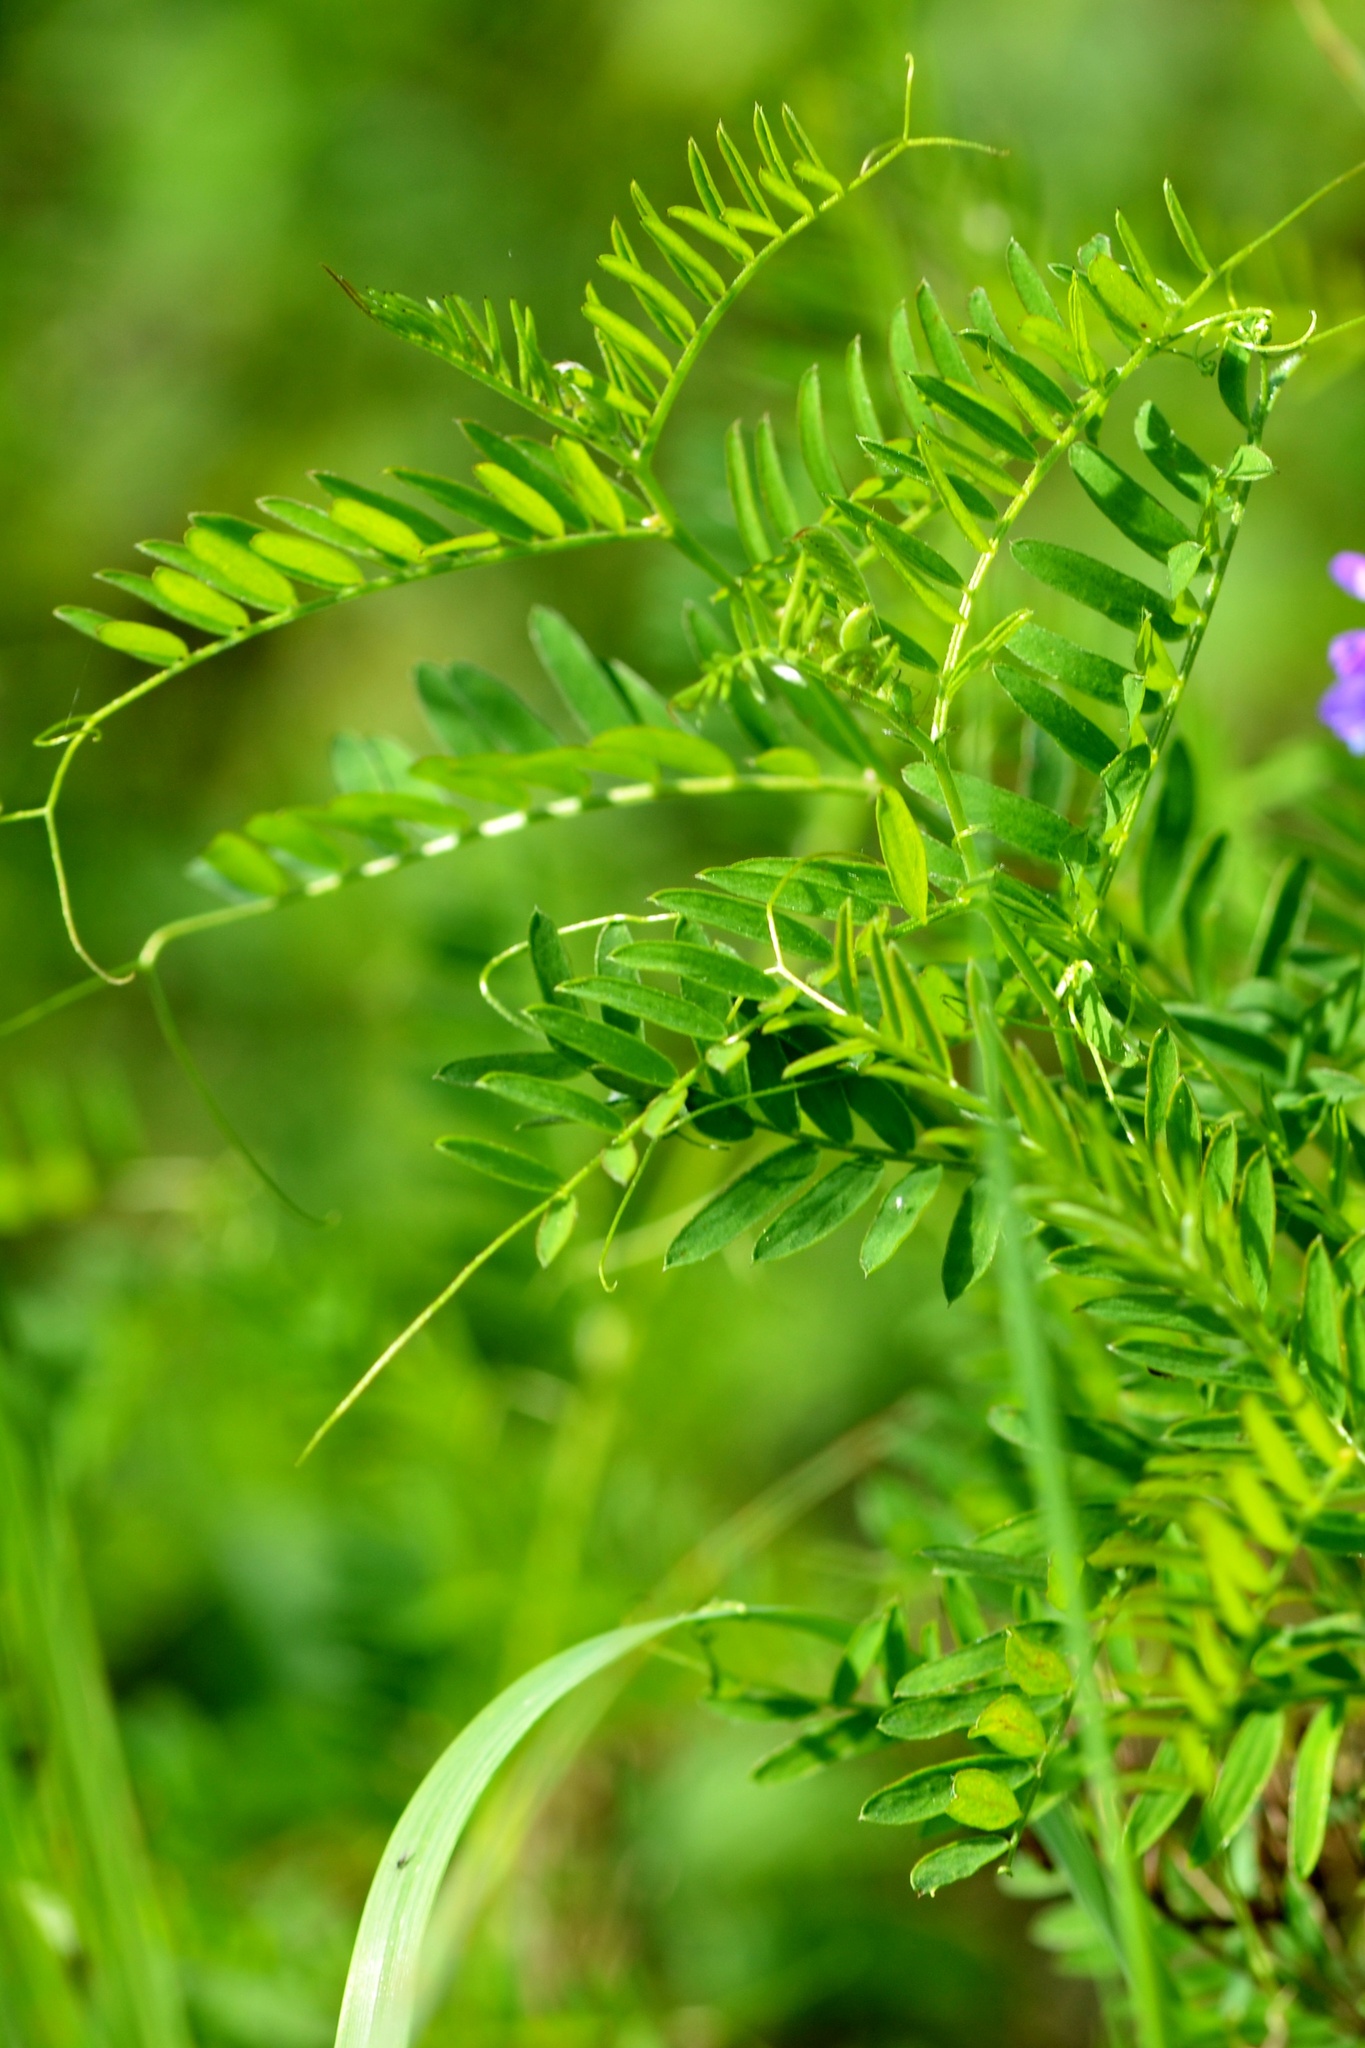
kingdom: Plantae
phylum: Tracheophyta
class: Magnoliopsida
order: Fabales
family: Fabaceae
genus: Vicia
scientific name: Vicia cracca
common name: Bird vetch
